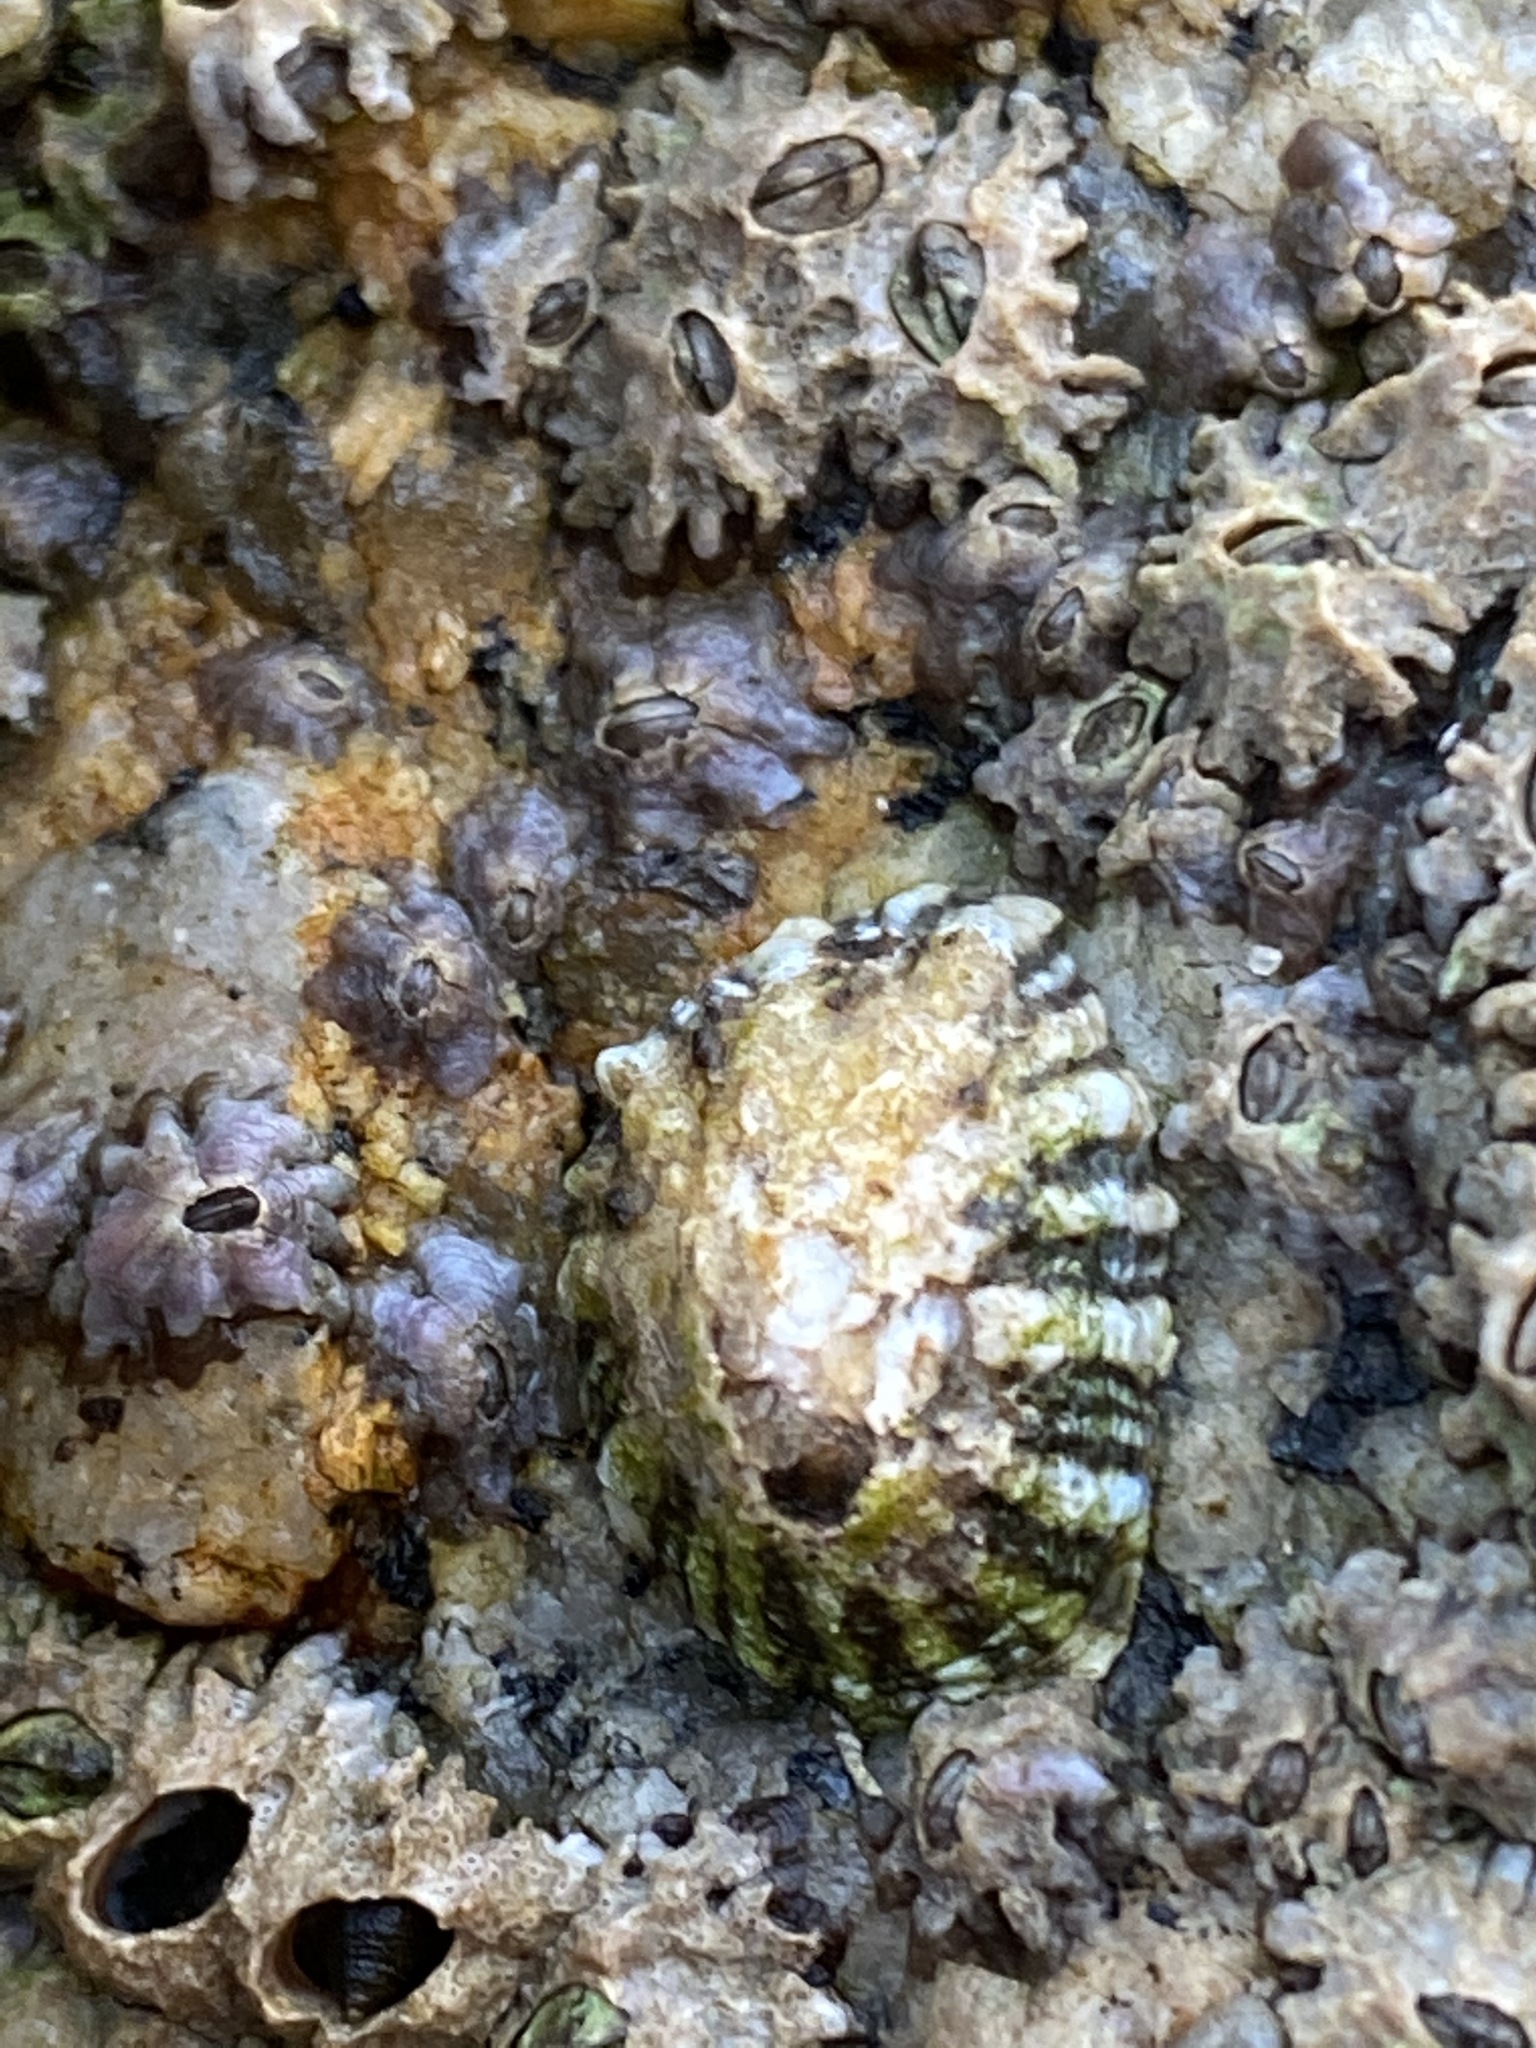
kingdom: Animalia
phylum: Mollusca
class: Gastropoda
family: Lottiidae
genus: Lottia
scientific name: Lottia scabra
